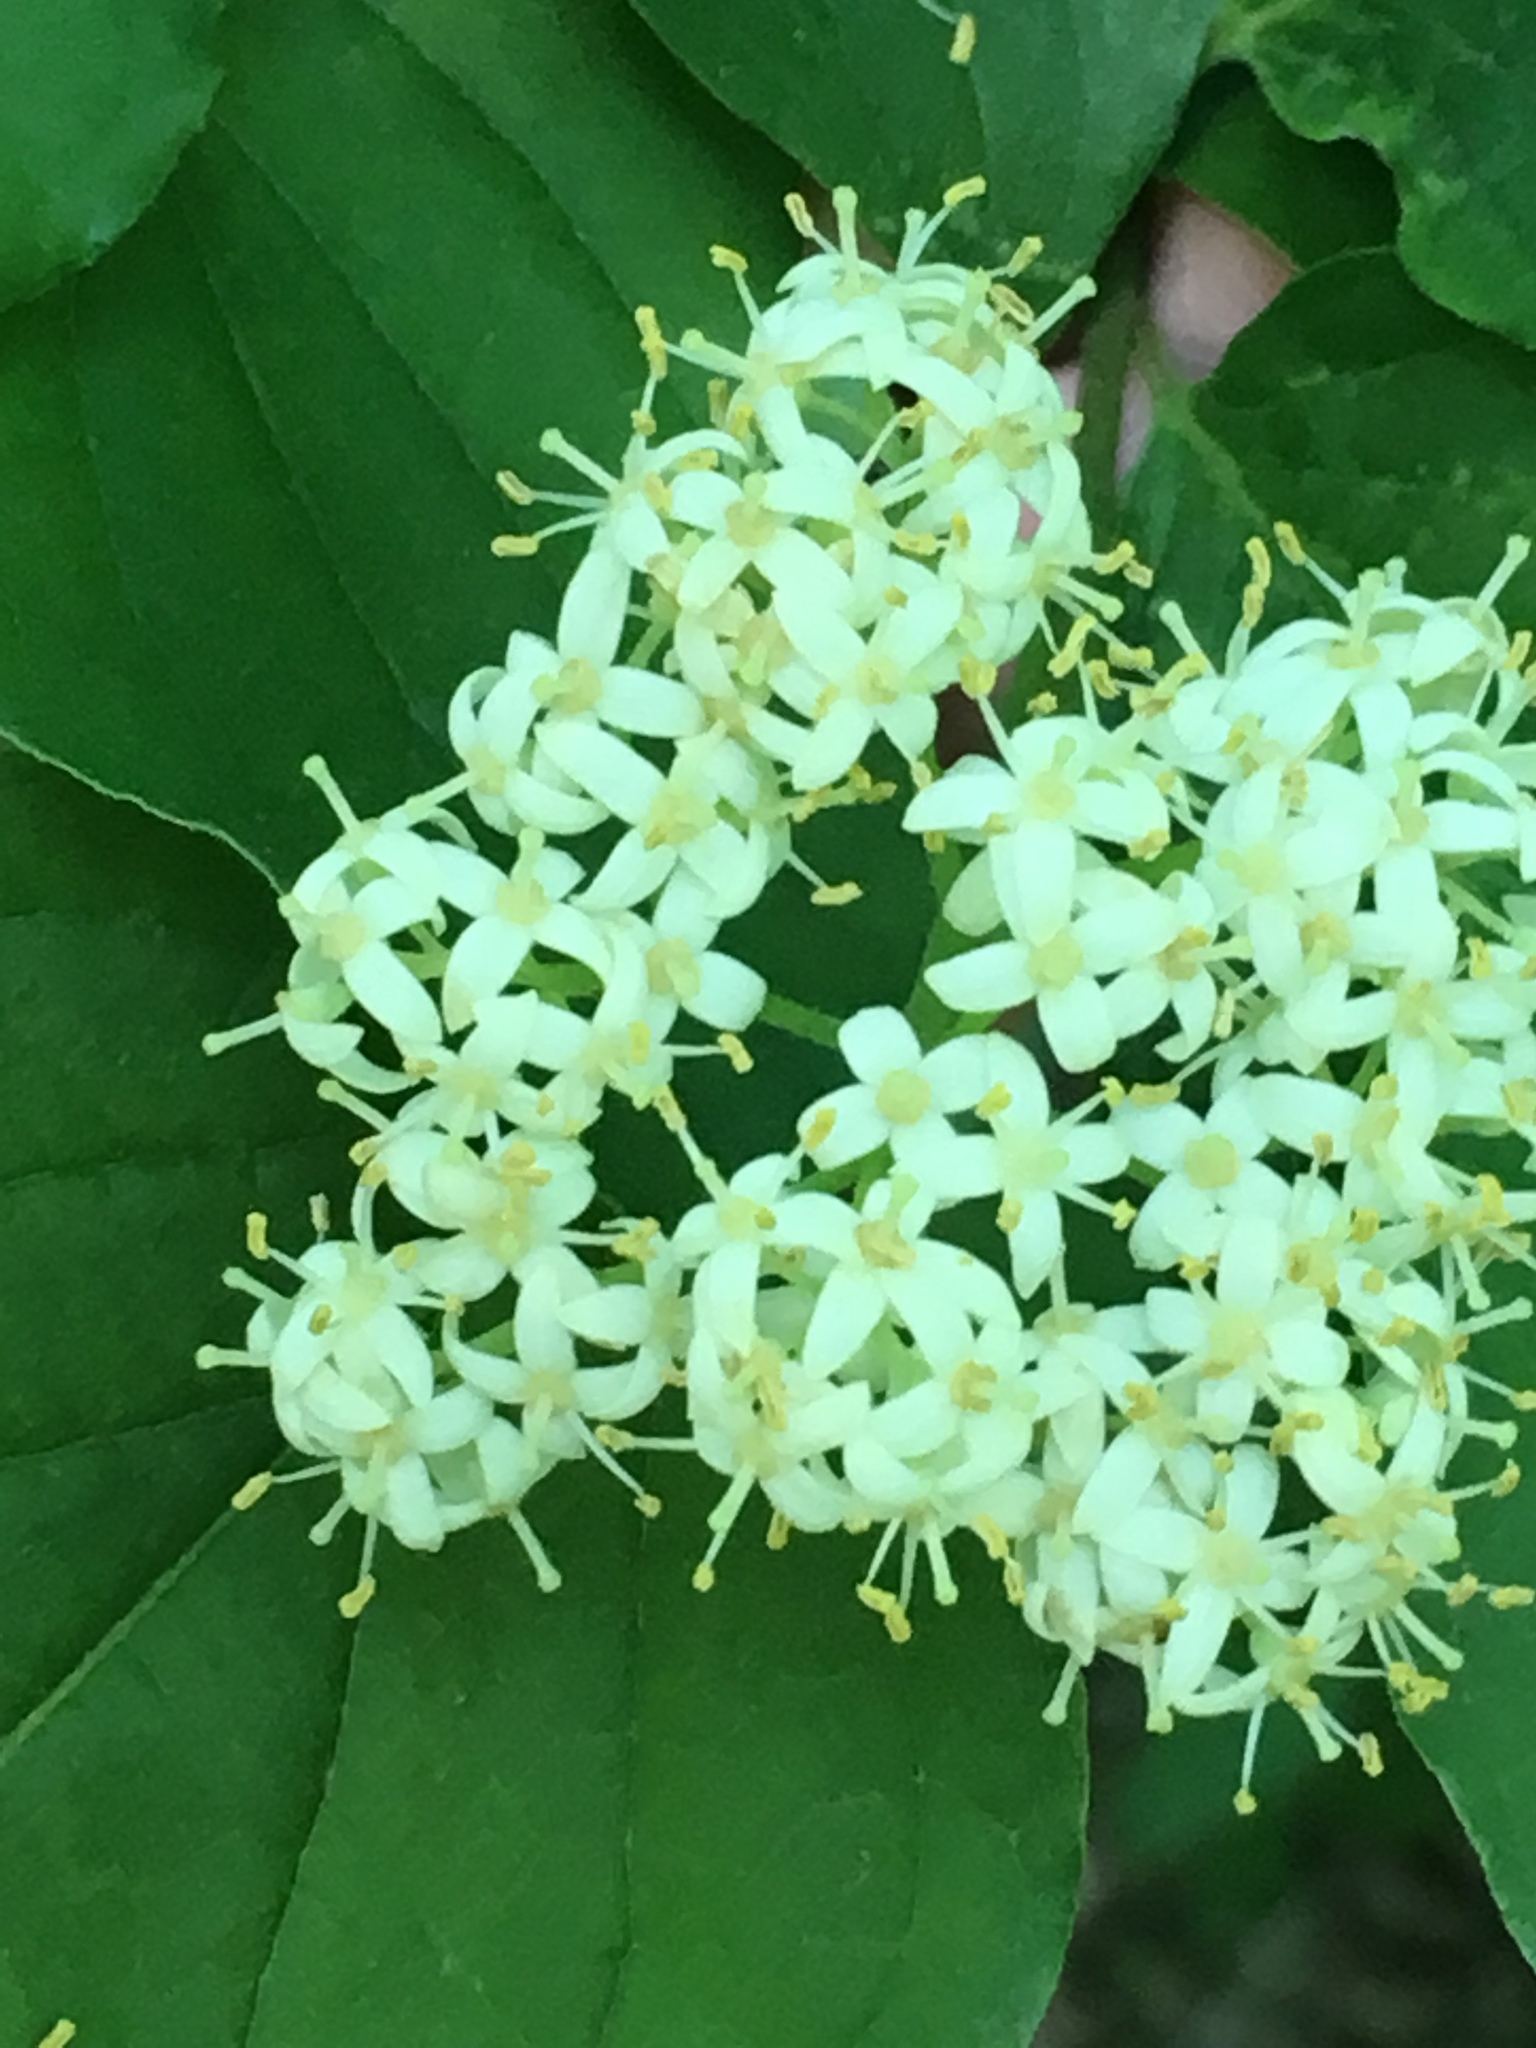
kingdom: Plantae
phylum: Tracheophyta
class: Magnoliopsida
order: Cornales
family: Cornaceae
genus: Cornus
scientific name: Cornus drummondii
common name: Rough-leaf dogwood
